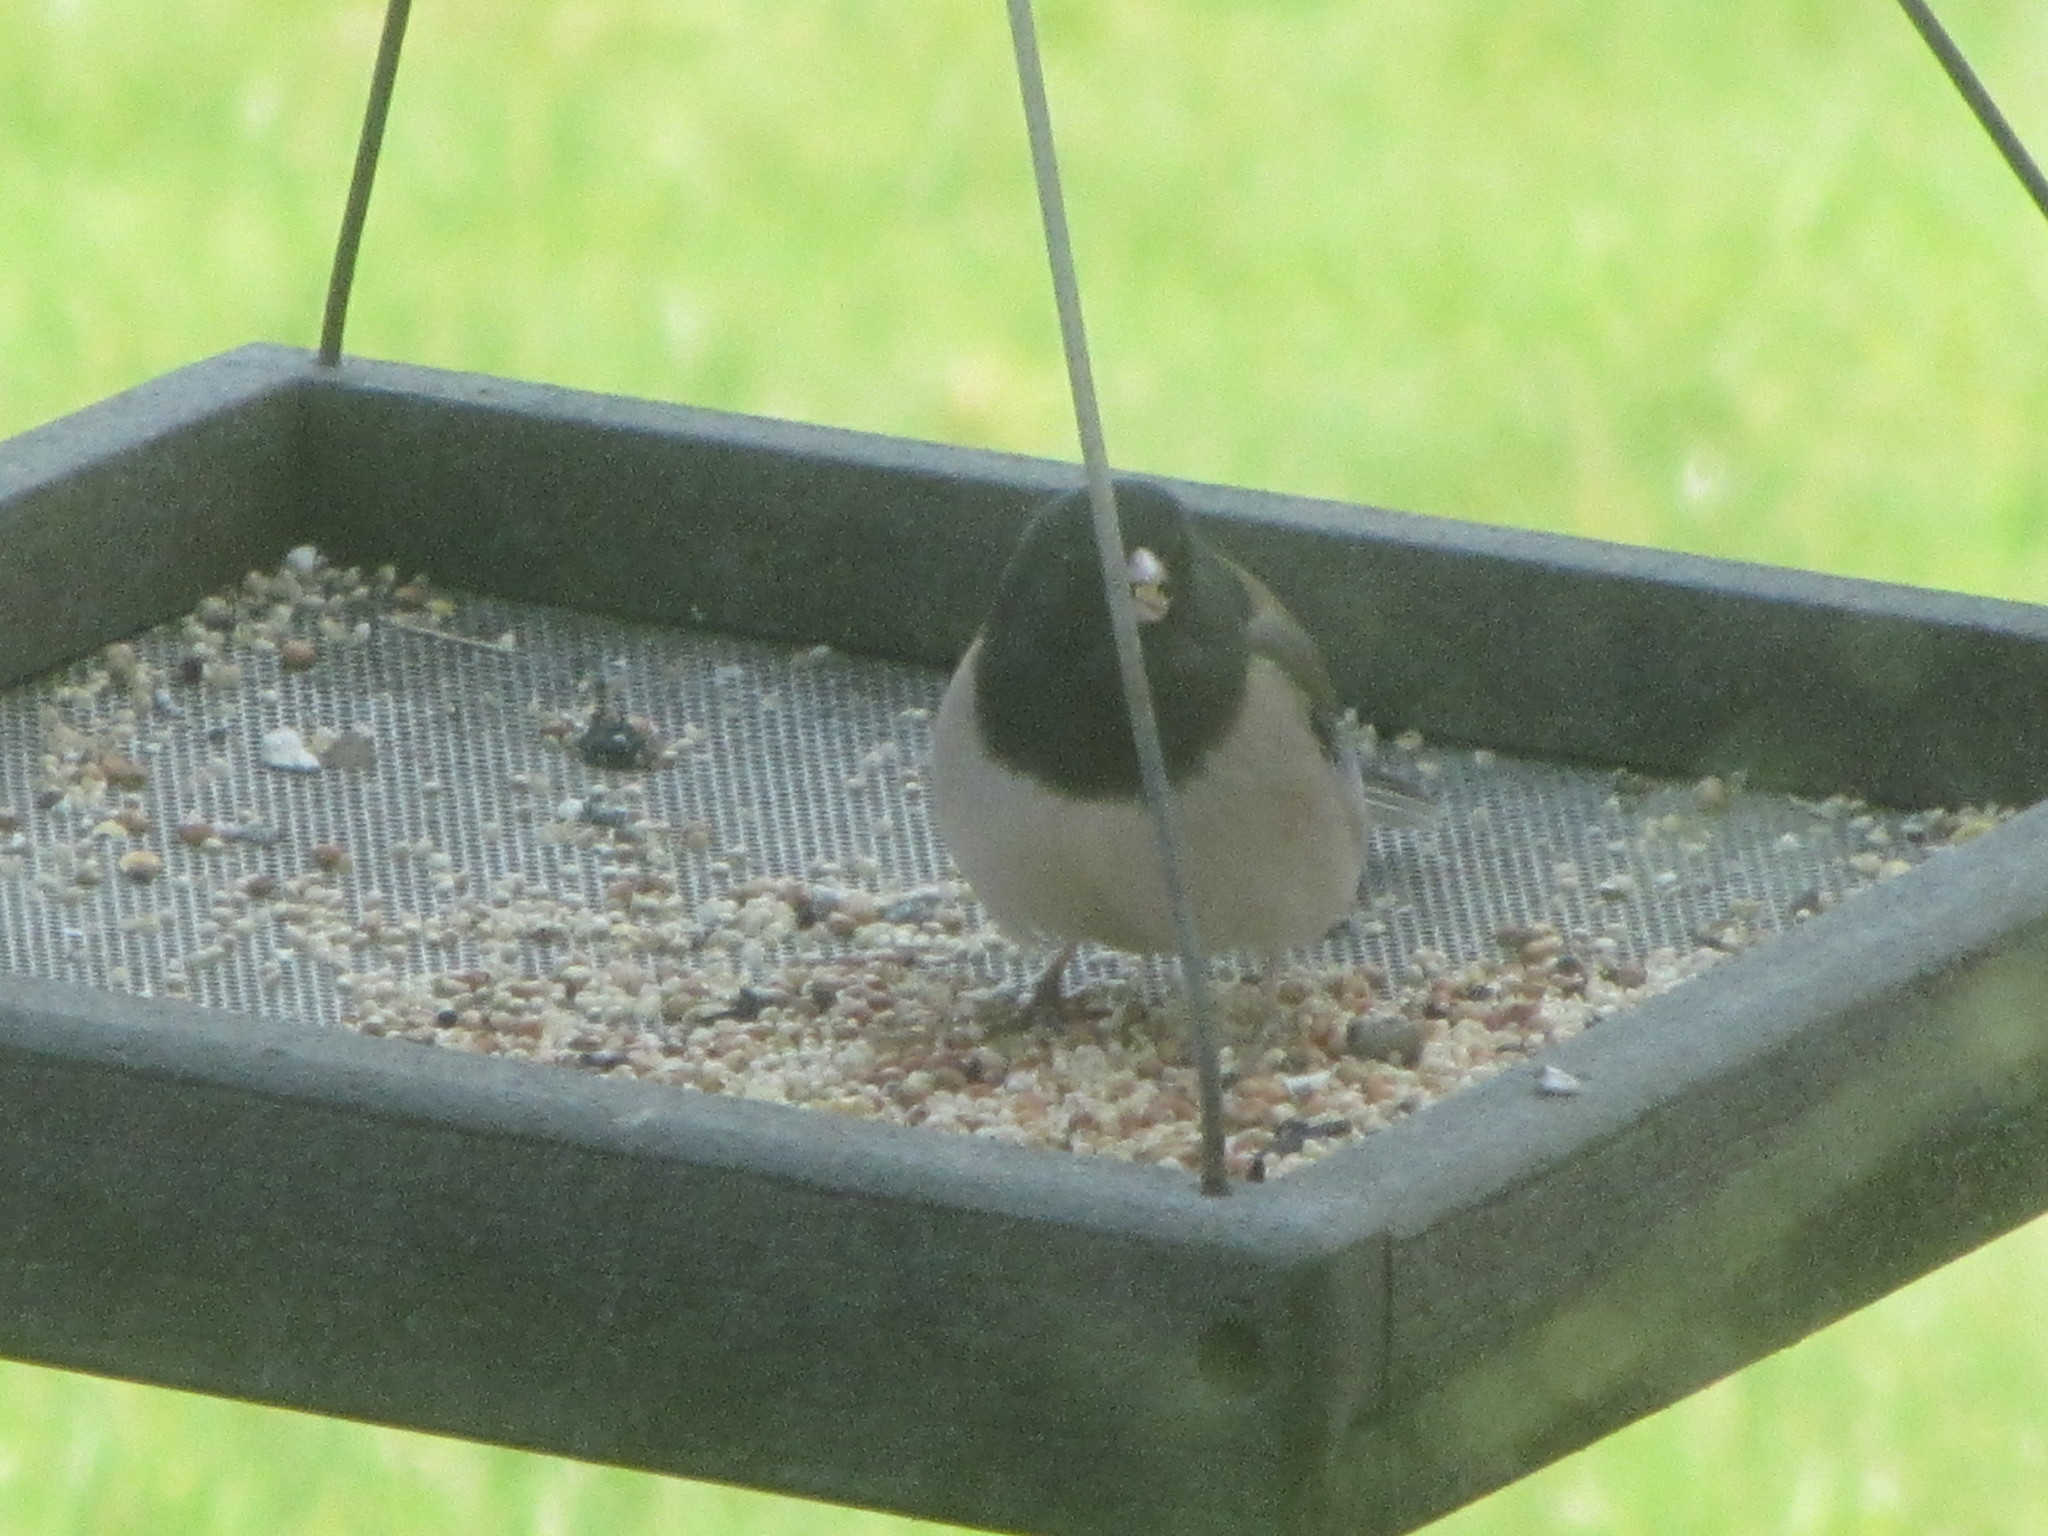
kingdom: Animalia
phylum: Chordata
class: Aves
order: Passeriformes
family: Passerellidae
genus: Junco
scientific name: Junco hyemalis
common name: Dark-eyed junco
